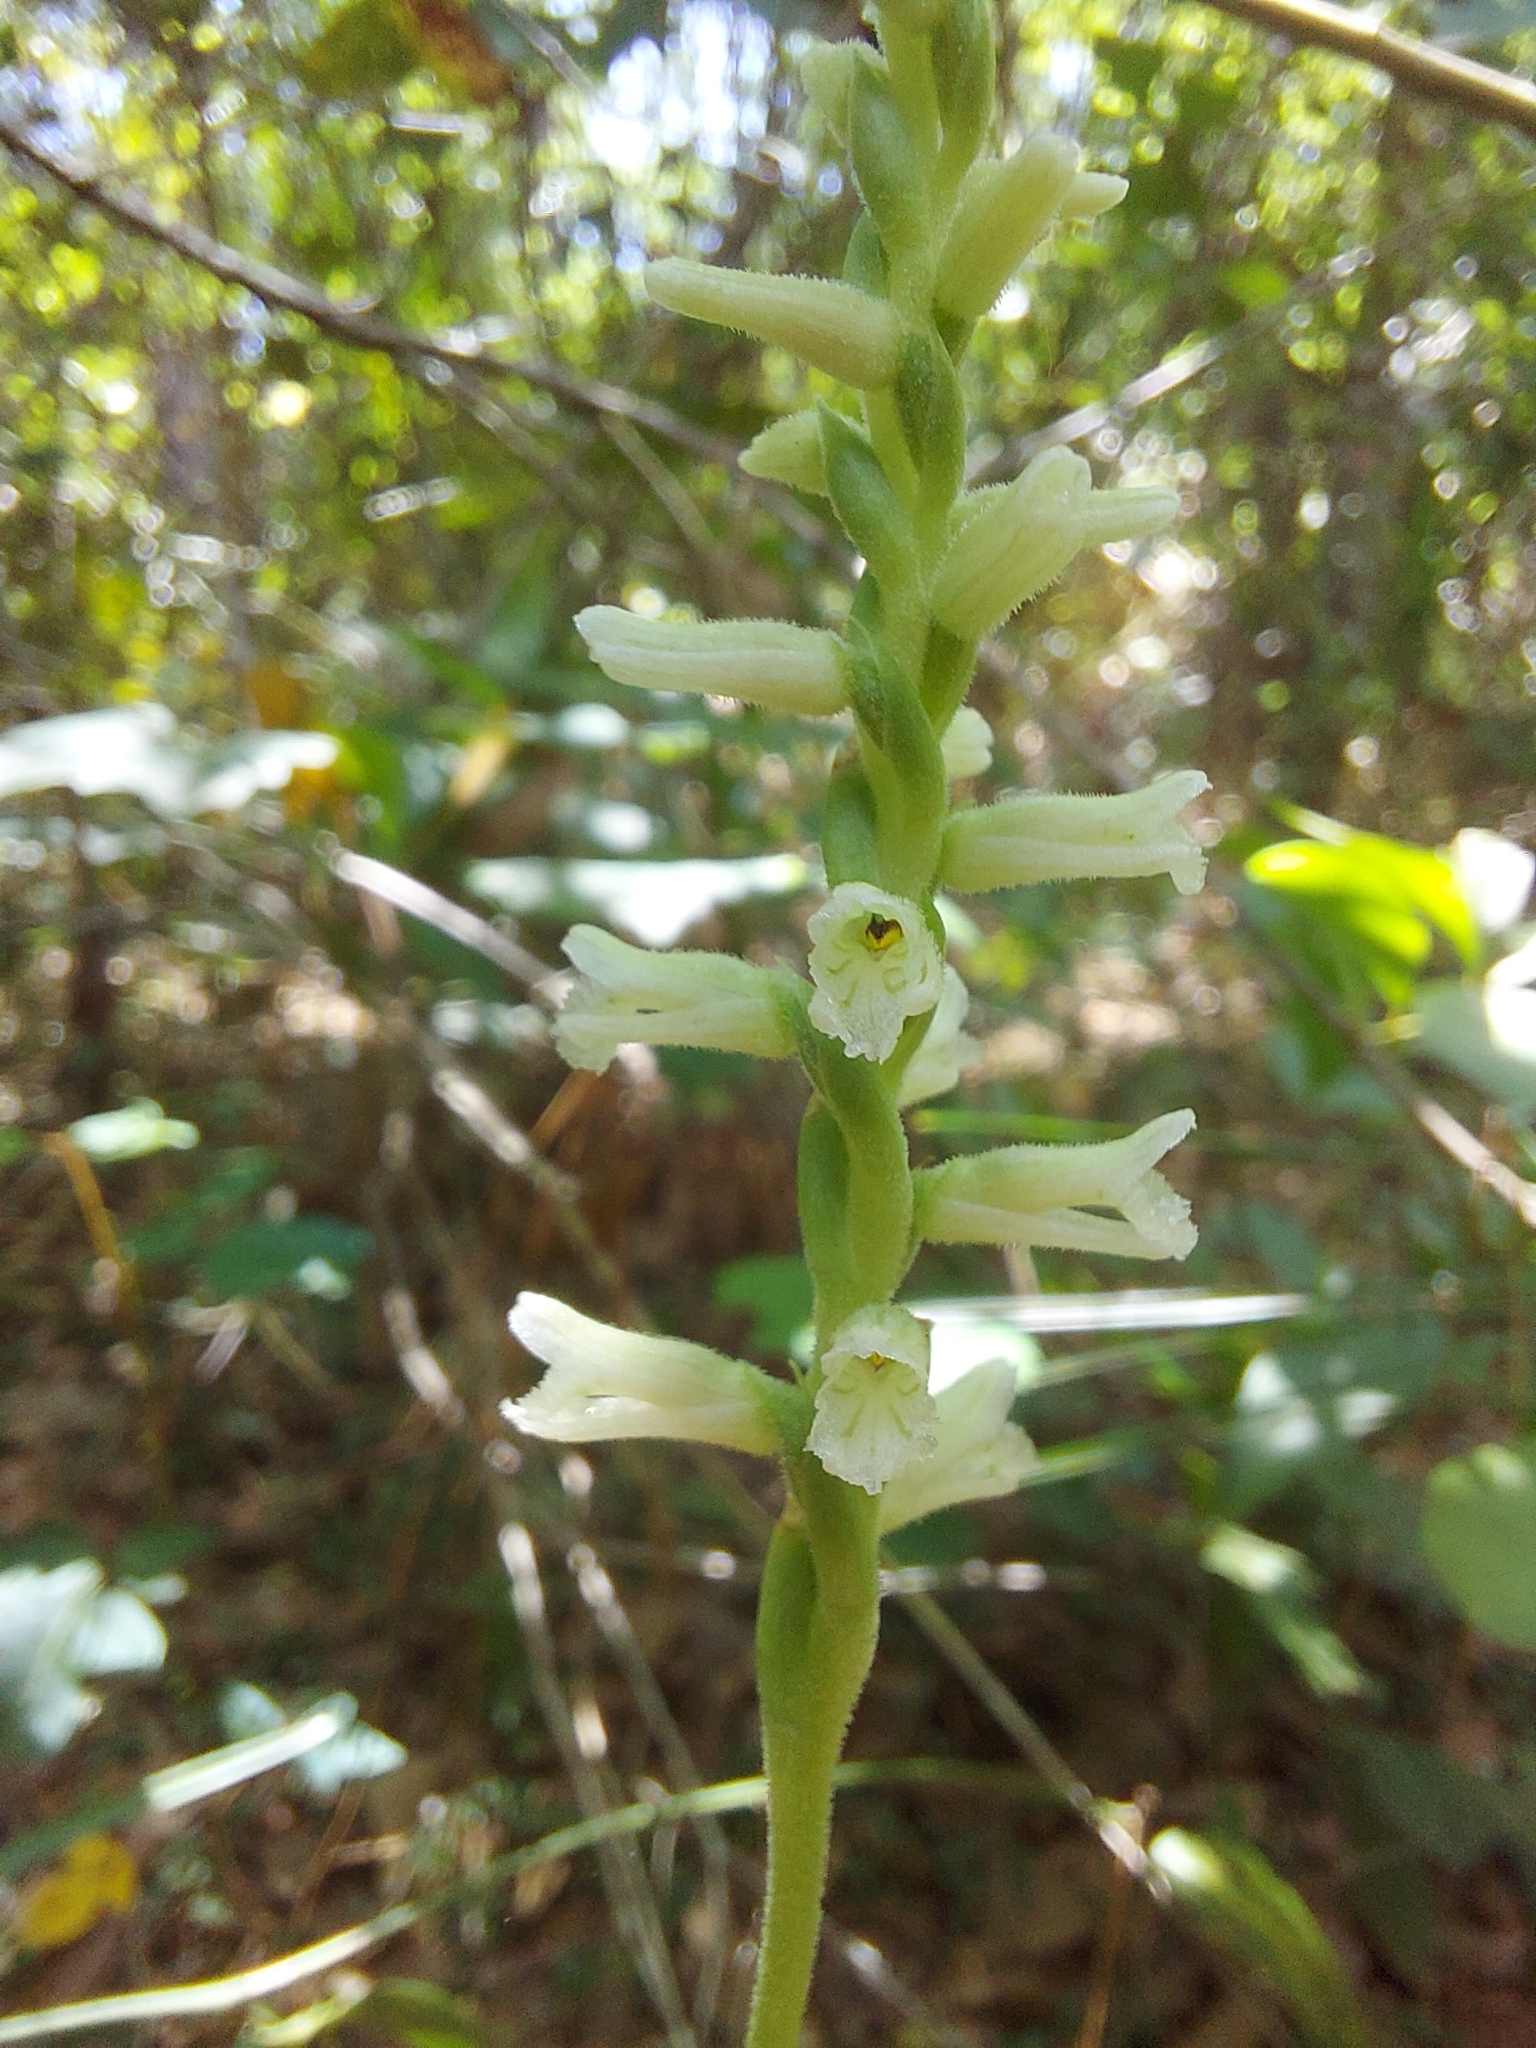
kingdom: Plantae
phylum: Tracheophyta
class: Liliopsida
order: Asparagales
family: Orchidaceae
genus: Spiranthes
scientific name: Spiranthes praecox
